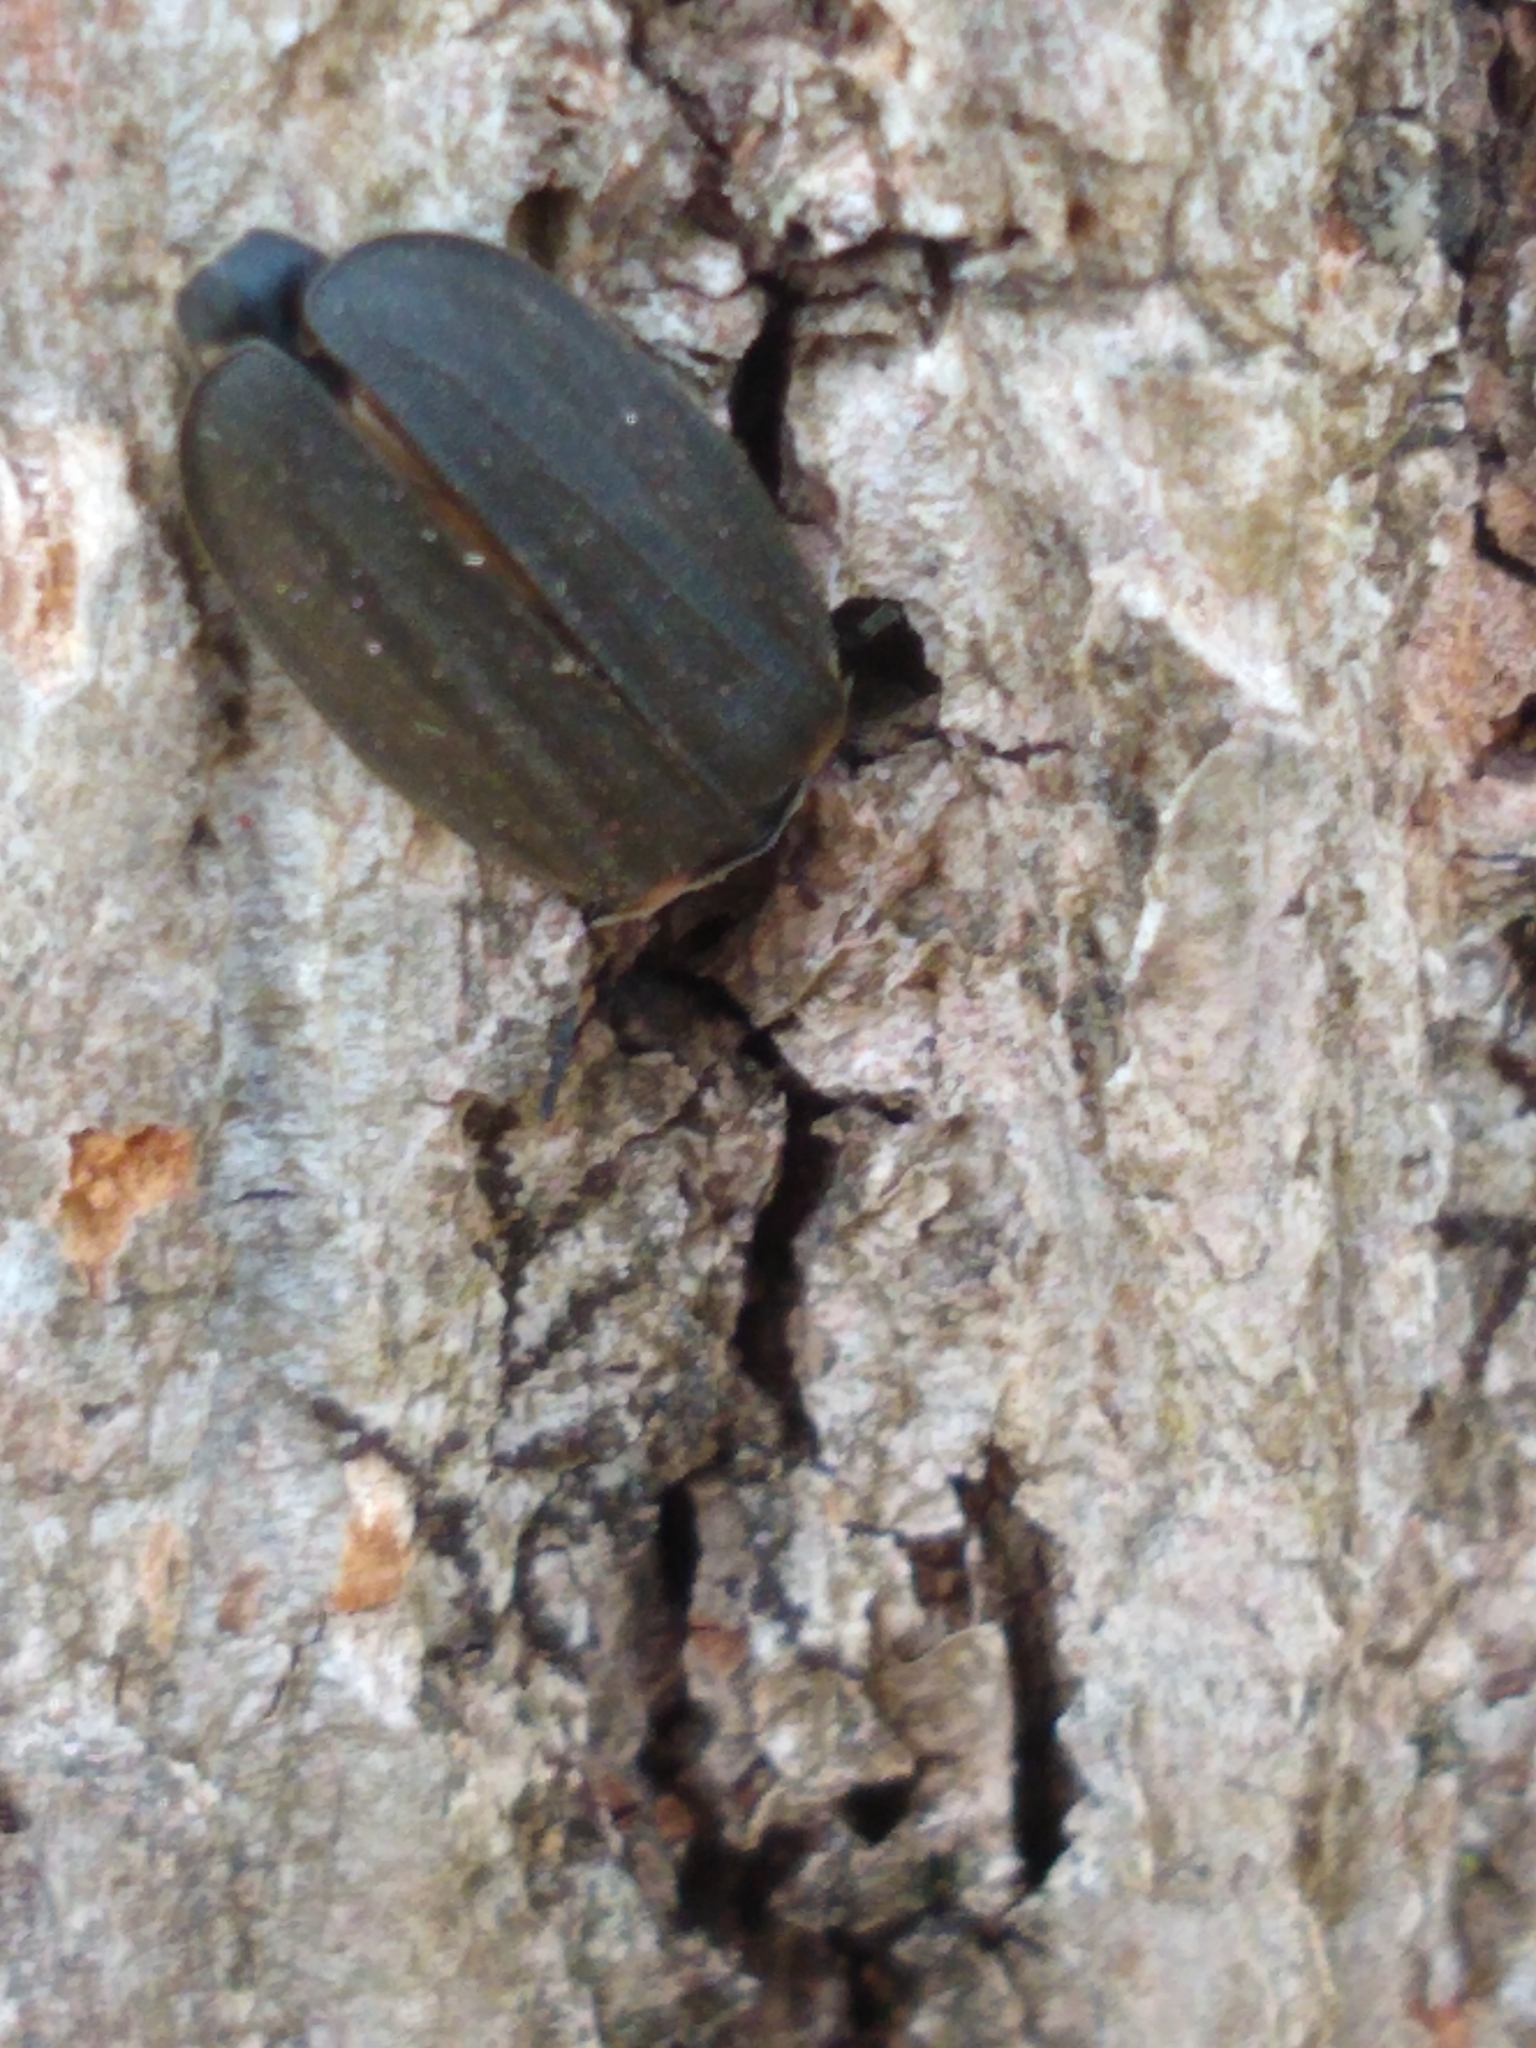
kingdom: Animalia
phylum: Arthropoda
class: Insecta
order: Coleoptera
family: Lampyridae
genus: Photinus
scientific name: Photinus corrusca
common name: Winter firefly
